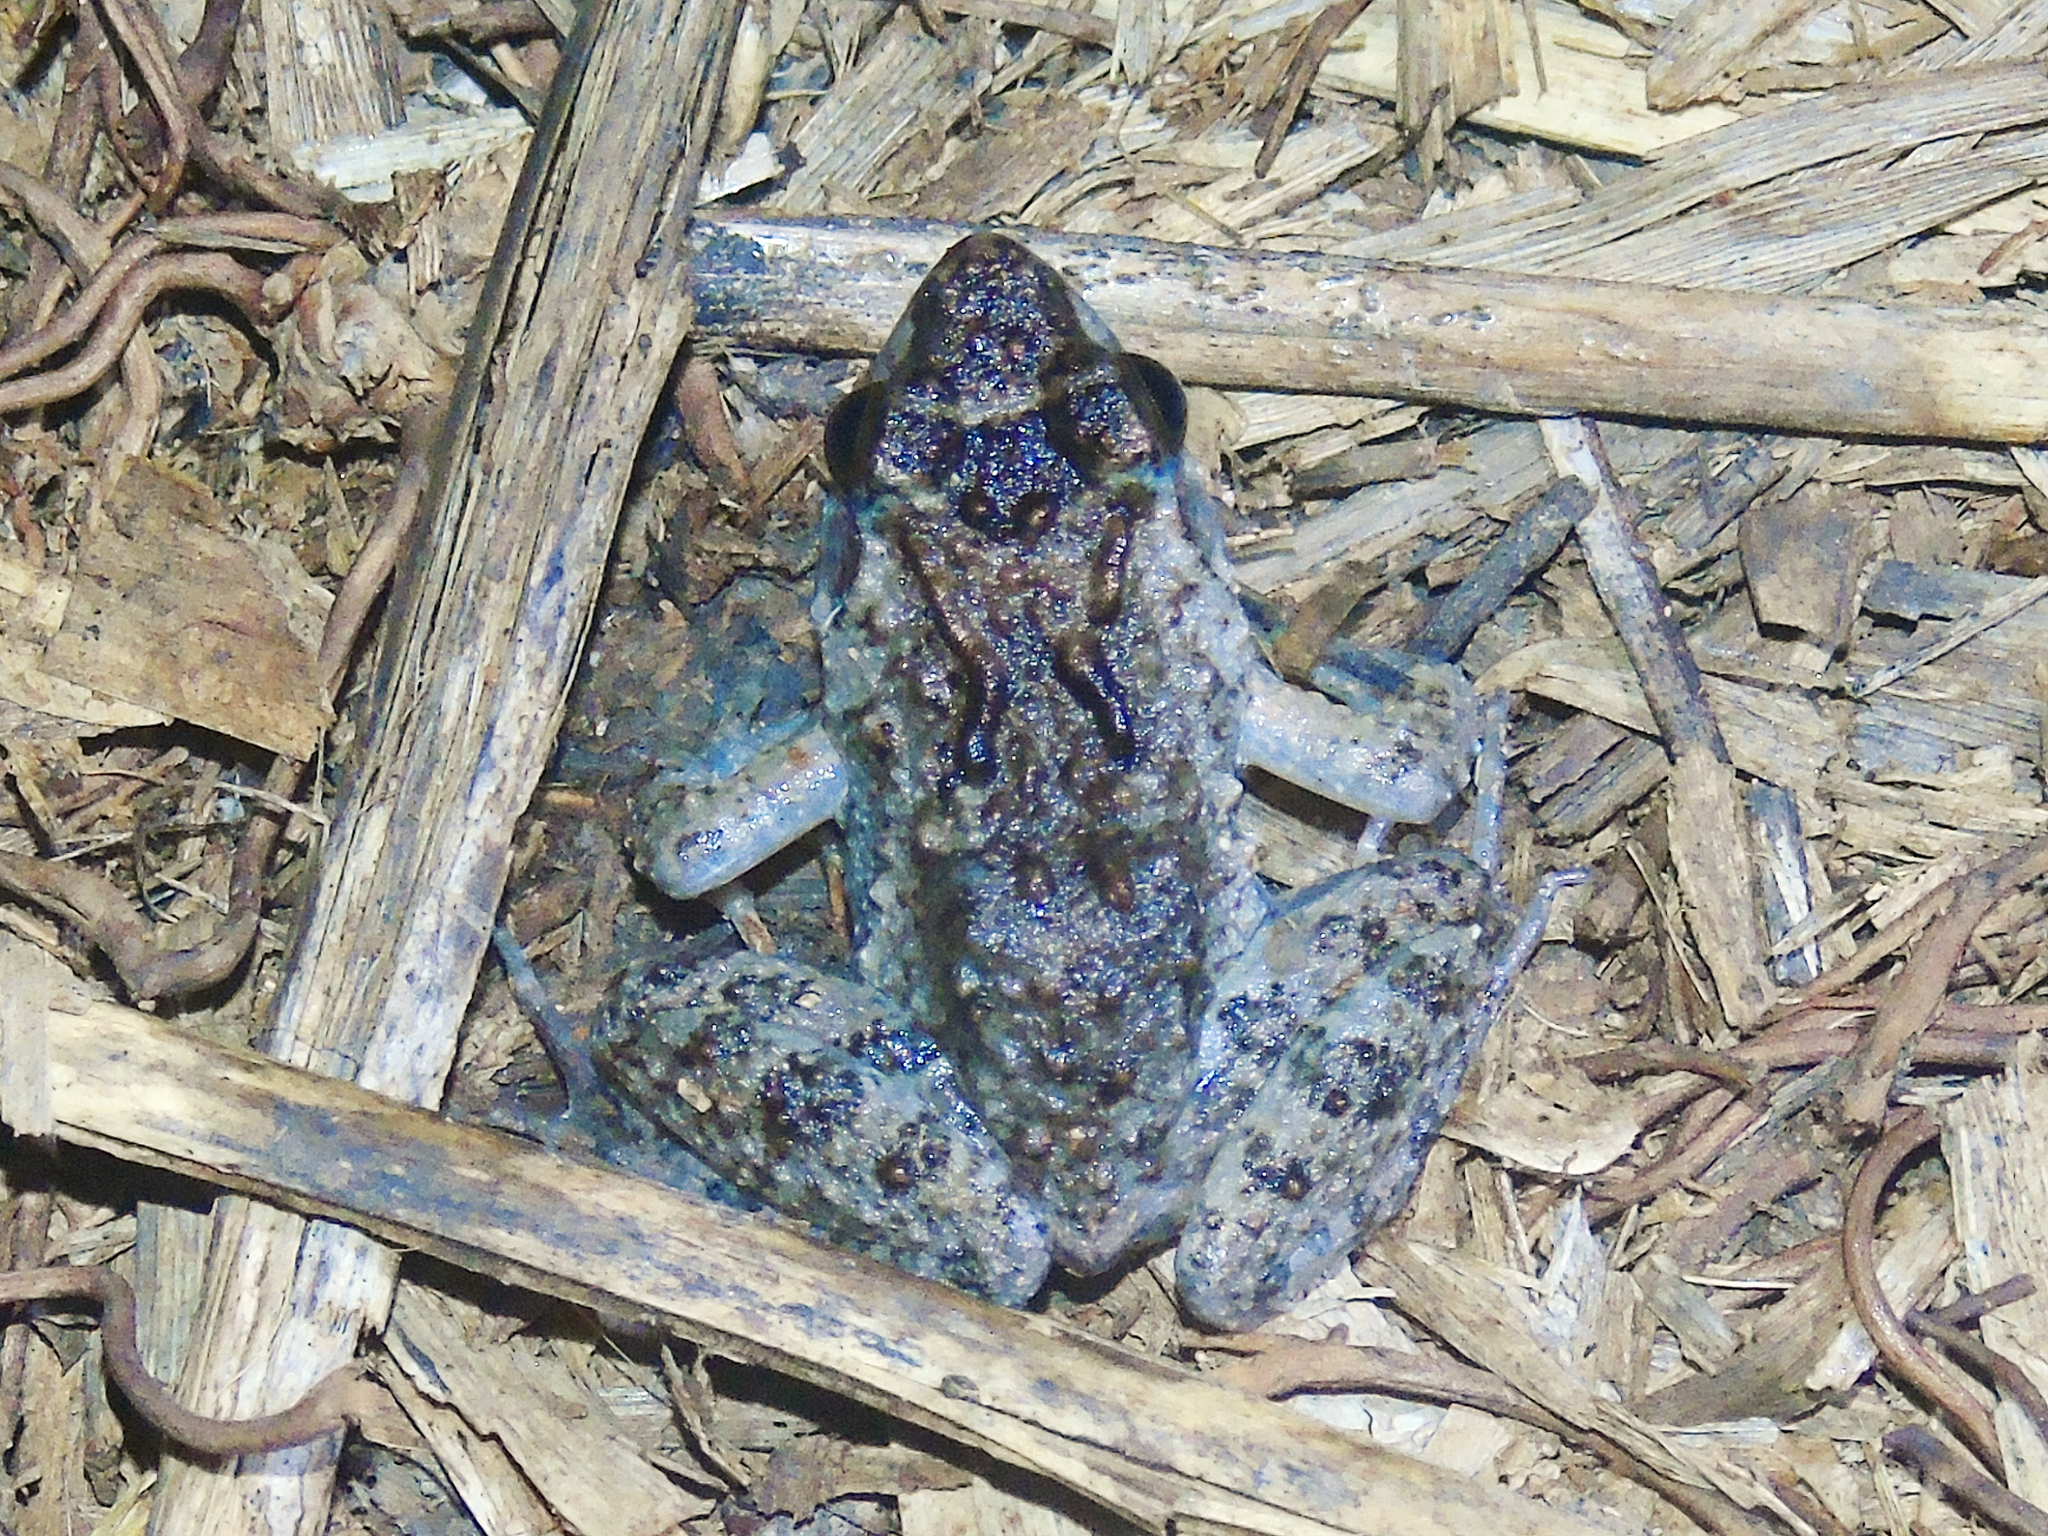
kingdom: Animalia
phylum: Chordata
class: Amphibia
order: Anura
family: Phrynobatrachidae
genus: Phrynobatrachus
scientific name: Phrynobatrachus acridoides
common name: East african puddle frog
